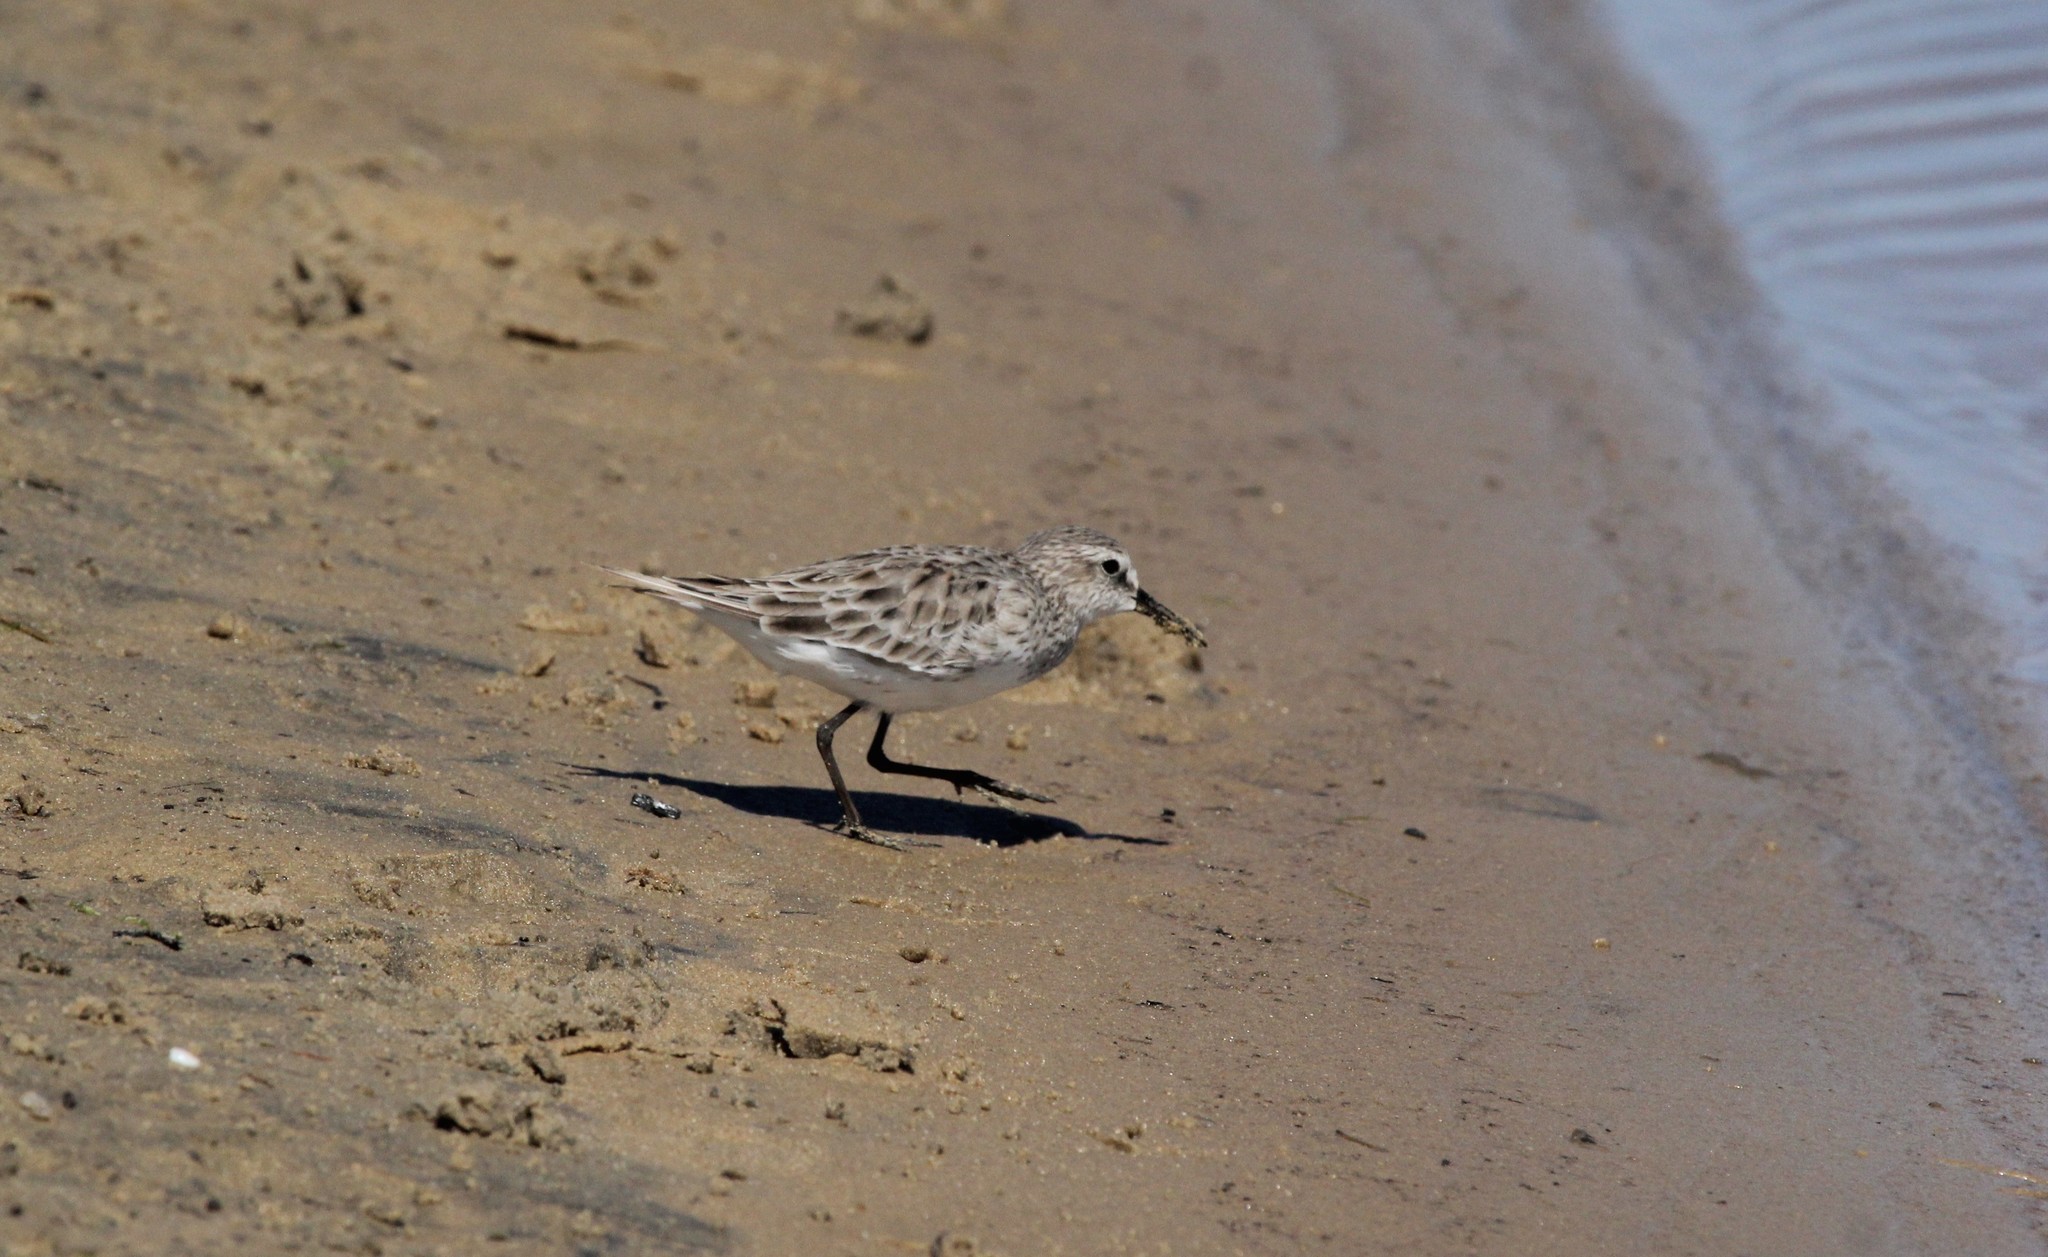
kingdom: Animalia
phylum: Chordata
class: Aves
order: Charadriiformes
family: Scolopacidae
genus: Calidris
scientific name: Calidris fuscicollis
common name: White-rumped sandpiper
